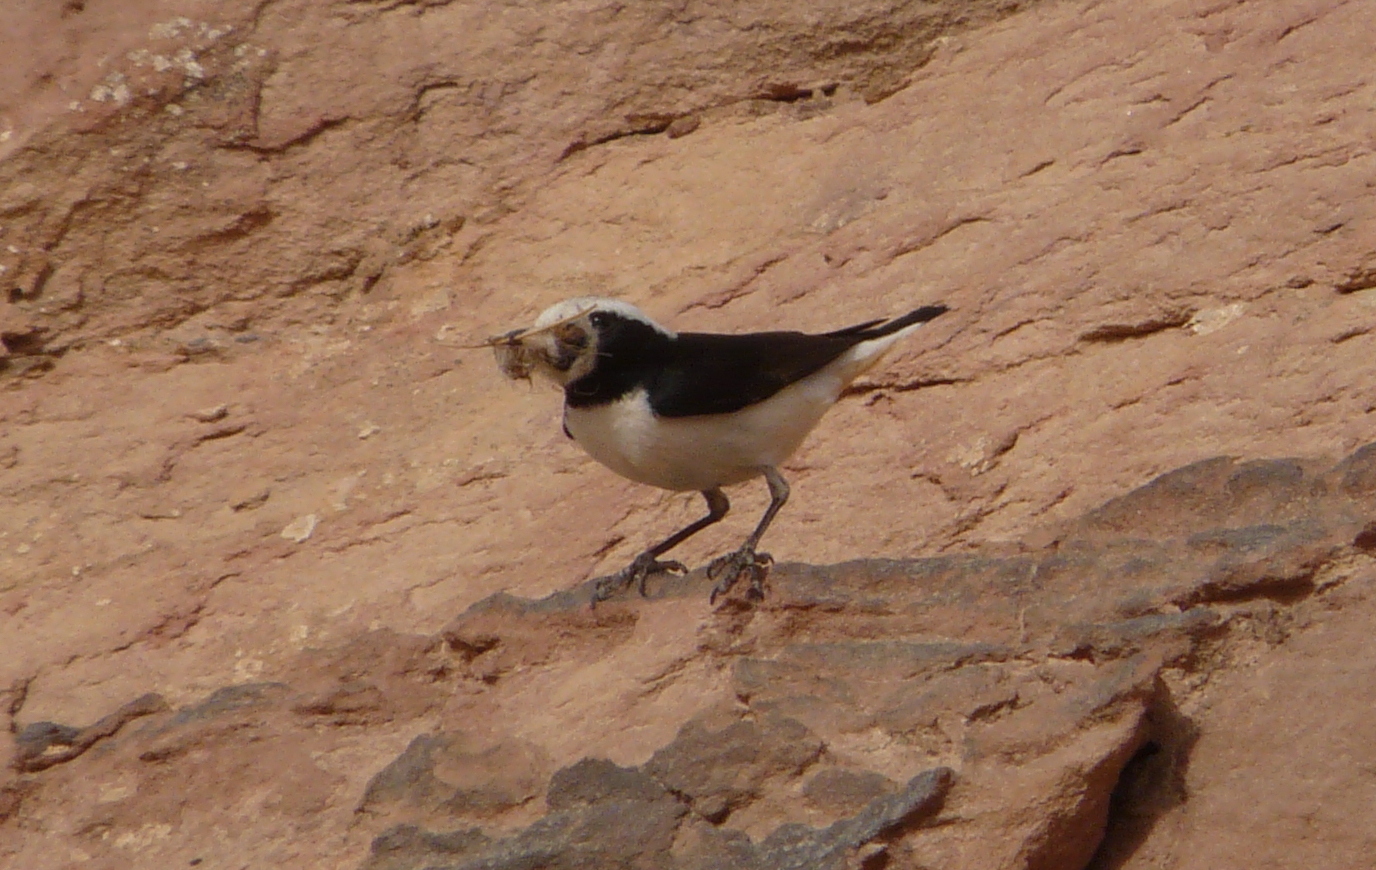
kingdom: Animalia
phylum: Chordata
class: Aves
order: Passeriformes
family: Muscicapidae
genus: Oenanthe
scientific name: Oenanthe lugens
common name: Mourning wheatear
